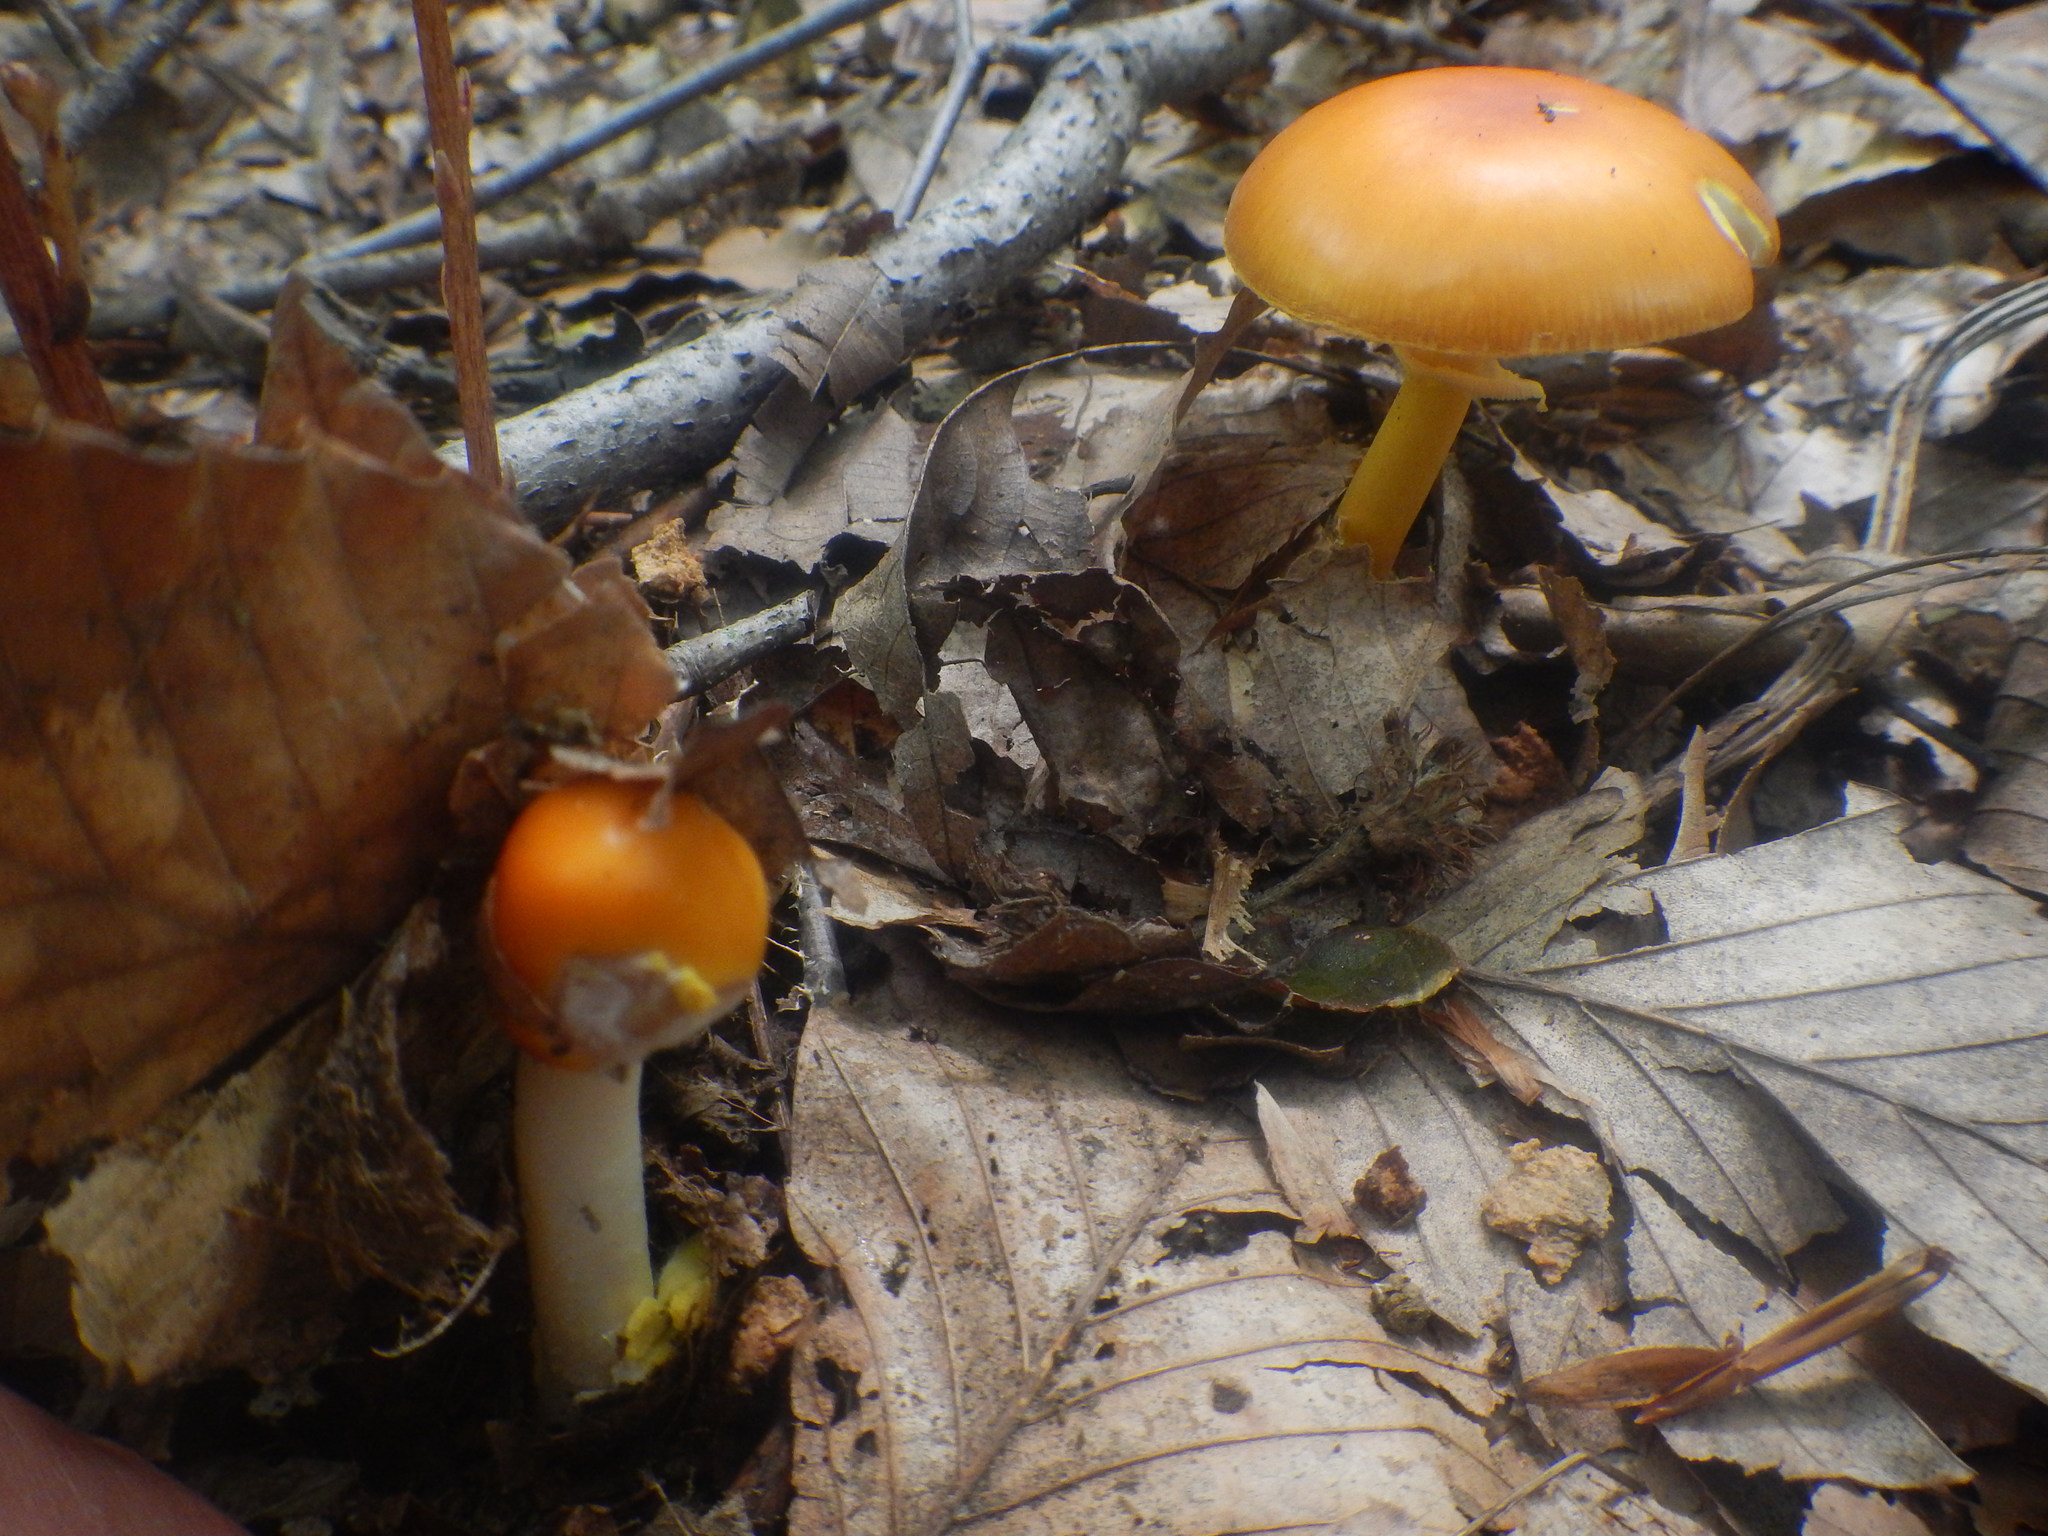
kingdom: Fungi
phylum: Basidiomycota
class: Agaricomycetes
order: Agaricales
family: Amanitaceae
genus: Amanita
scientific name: Amanita flavoconia
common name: Yellow patches
